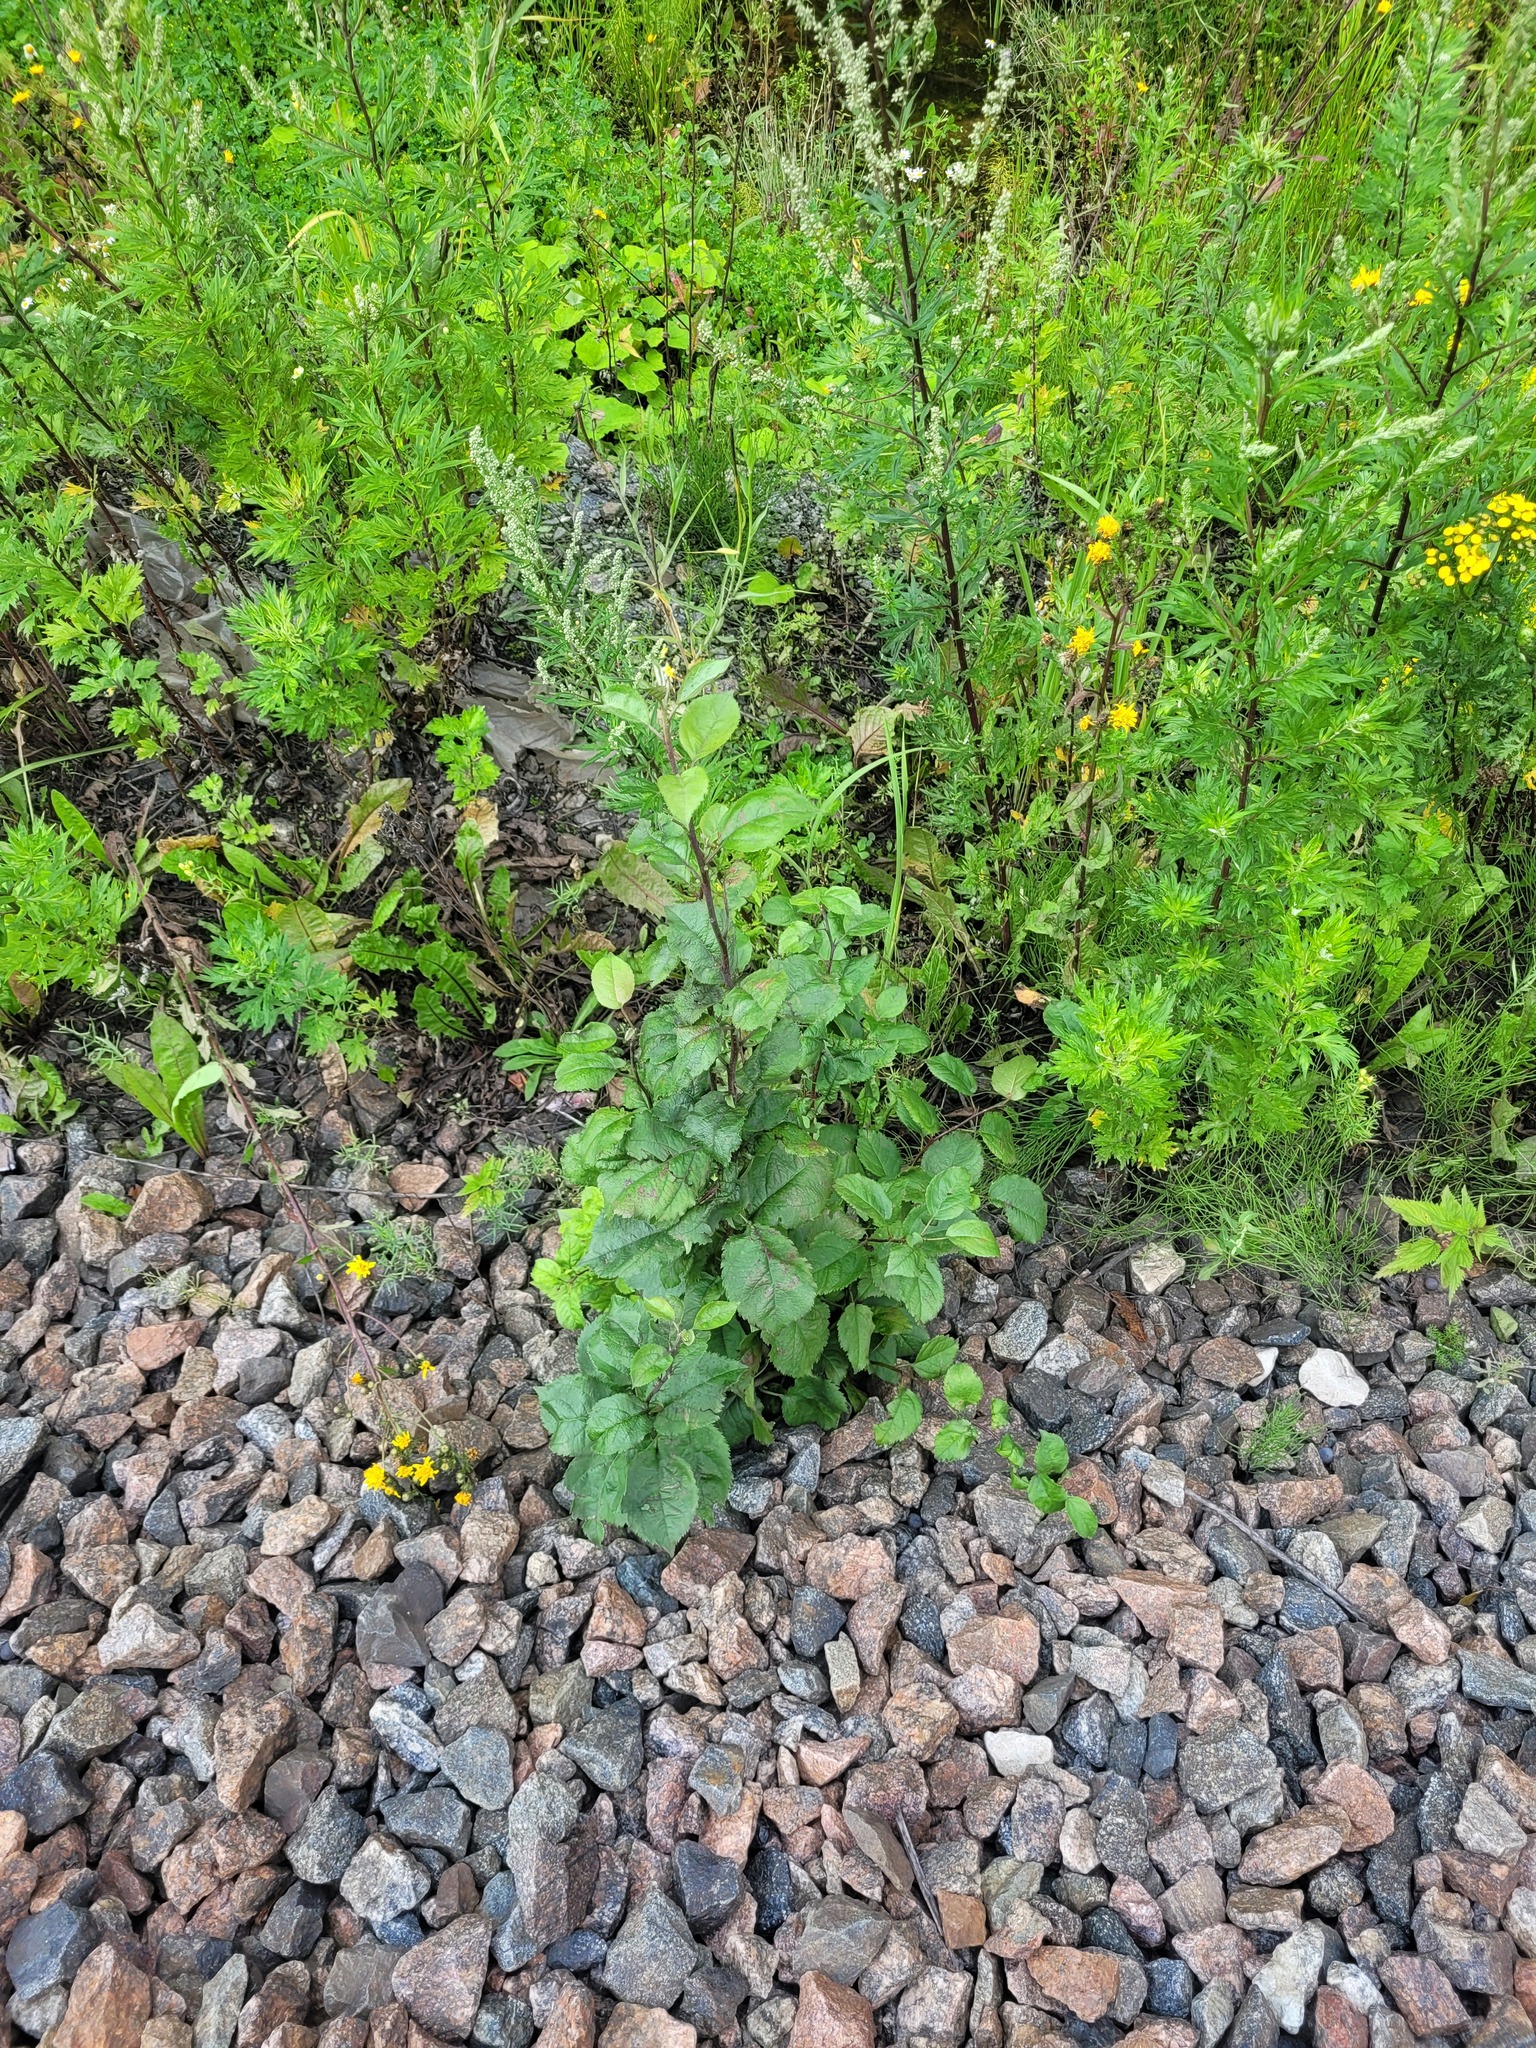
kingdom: Plantae
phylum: Tracheophyta
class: Magnoliopsida
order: Rosales
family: Rosaceae
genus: Malus
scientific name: Malus domestica
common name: Apple
